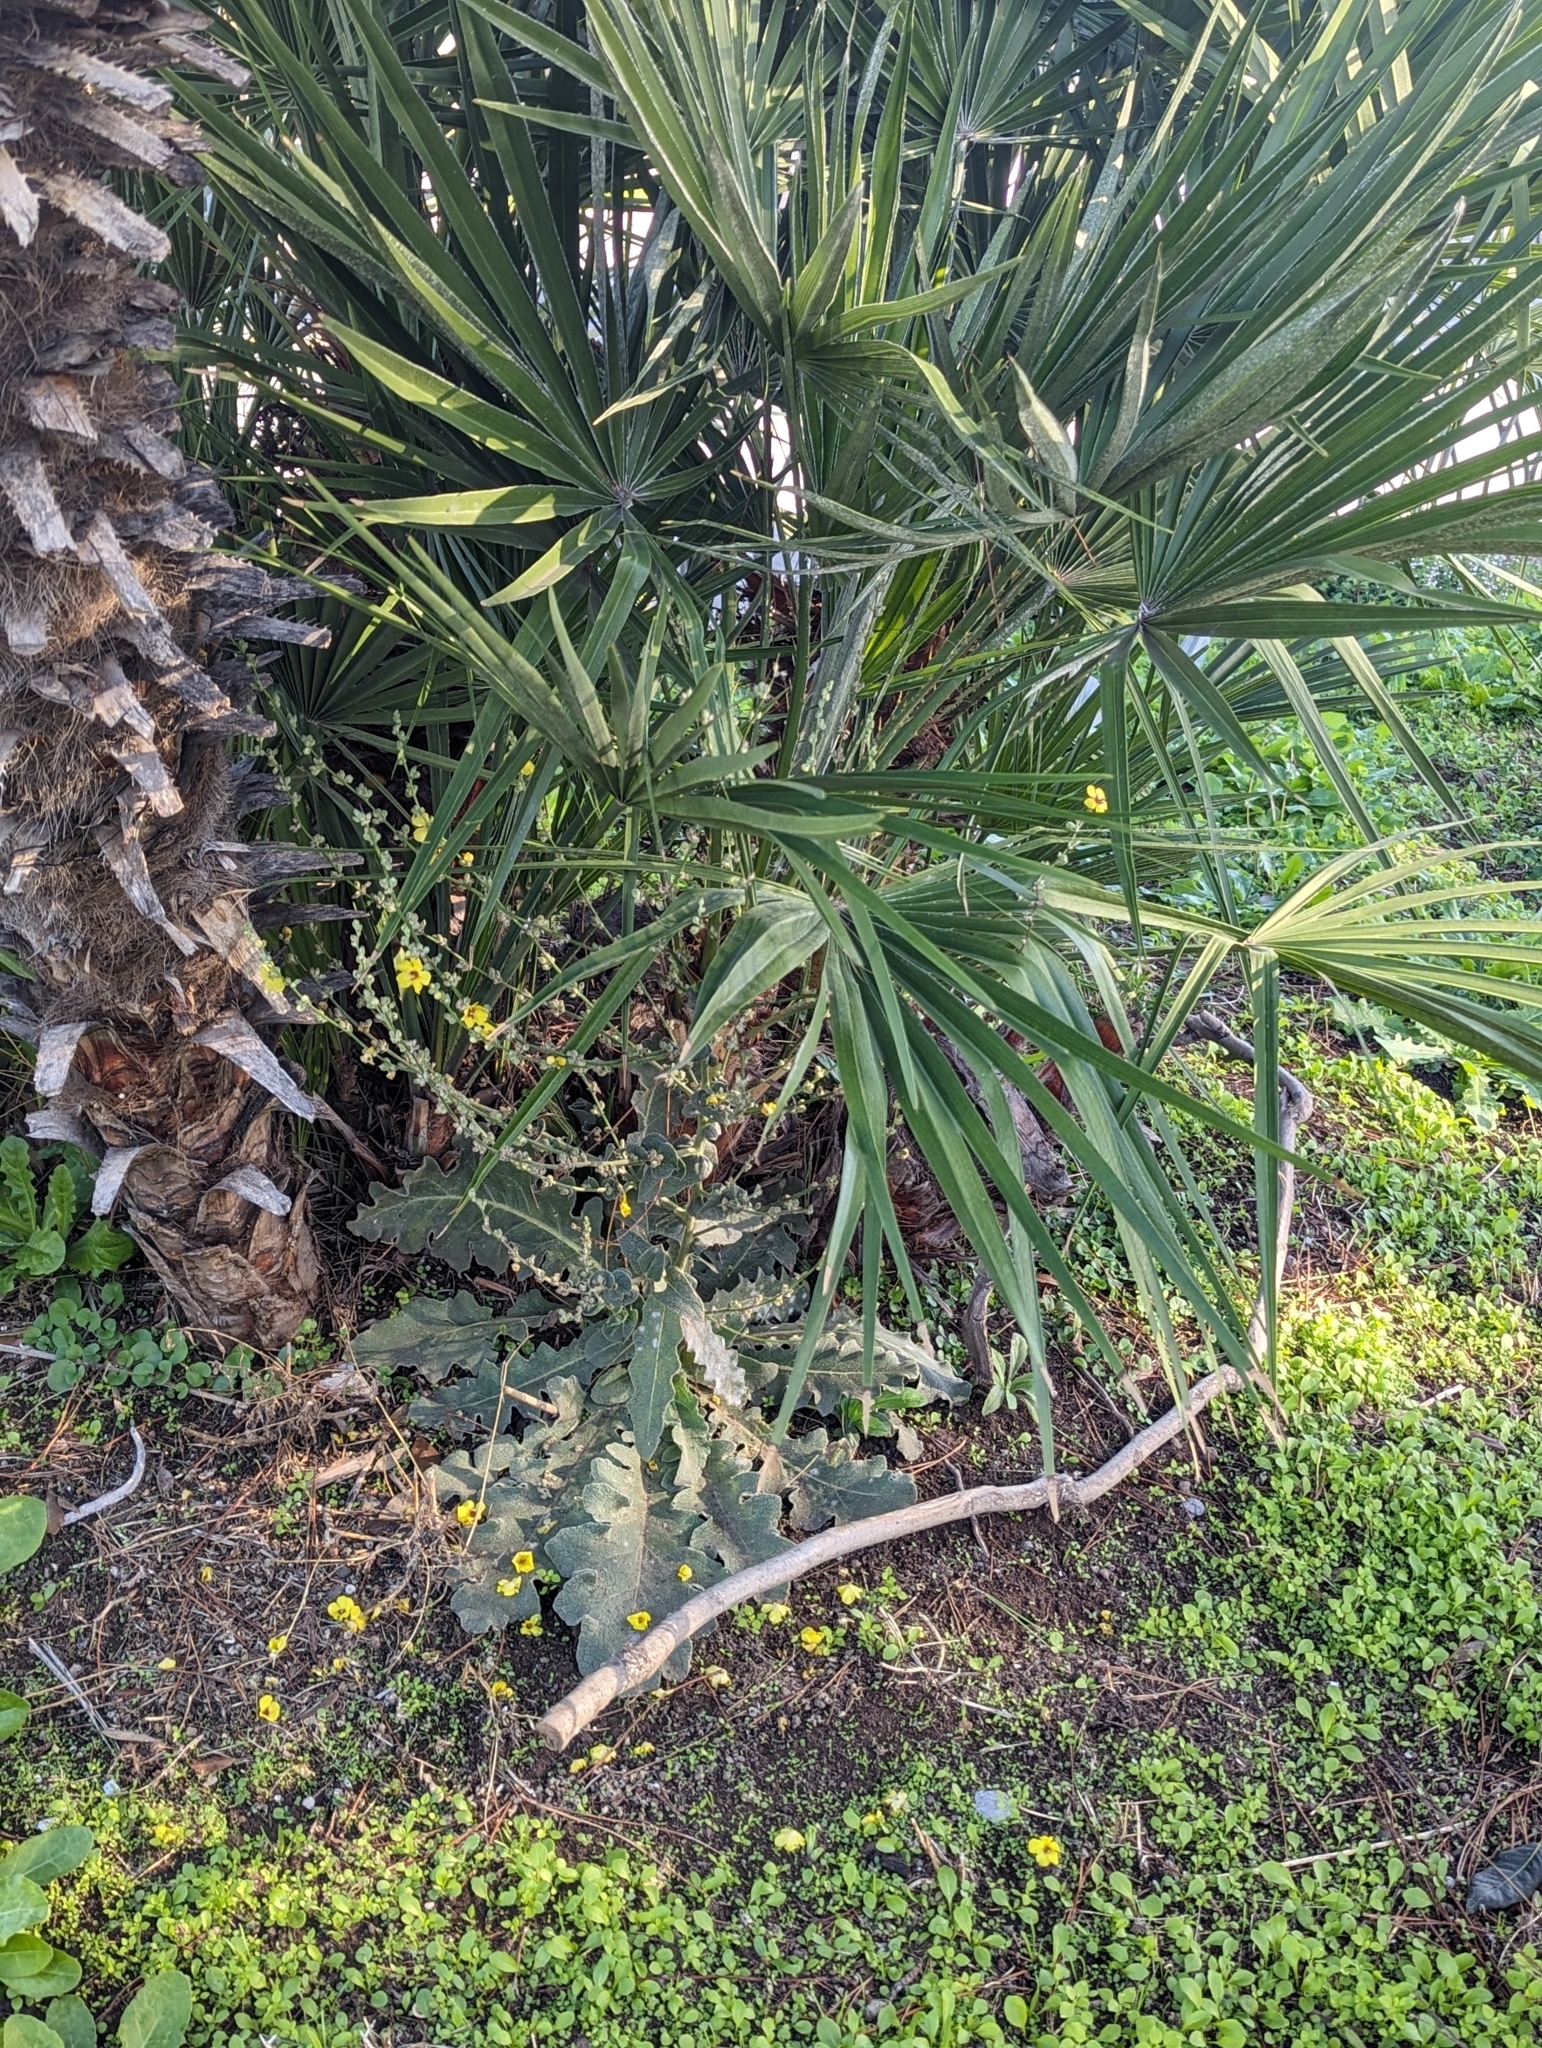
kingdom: Plantae
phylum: Tracheophyta
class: Magnoliopsida
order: Lamiales
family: Scrophulariaceae
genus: Verbascum
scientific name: Verbascum sinuatum
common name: Wavyleaf mullein
